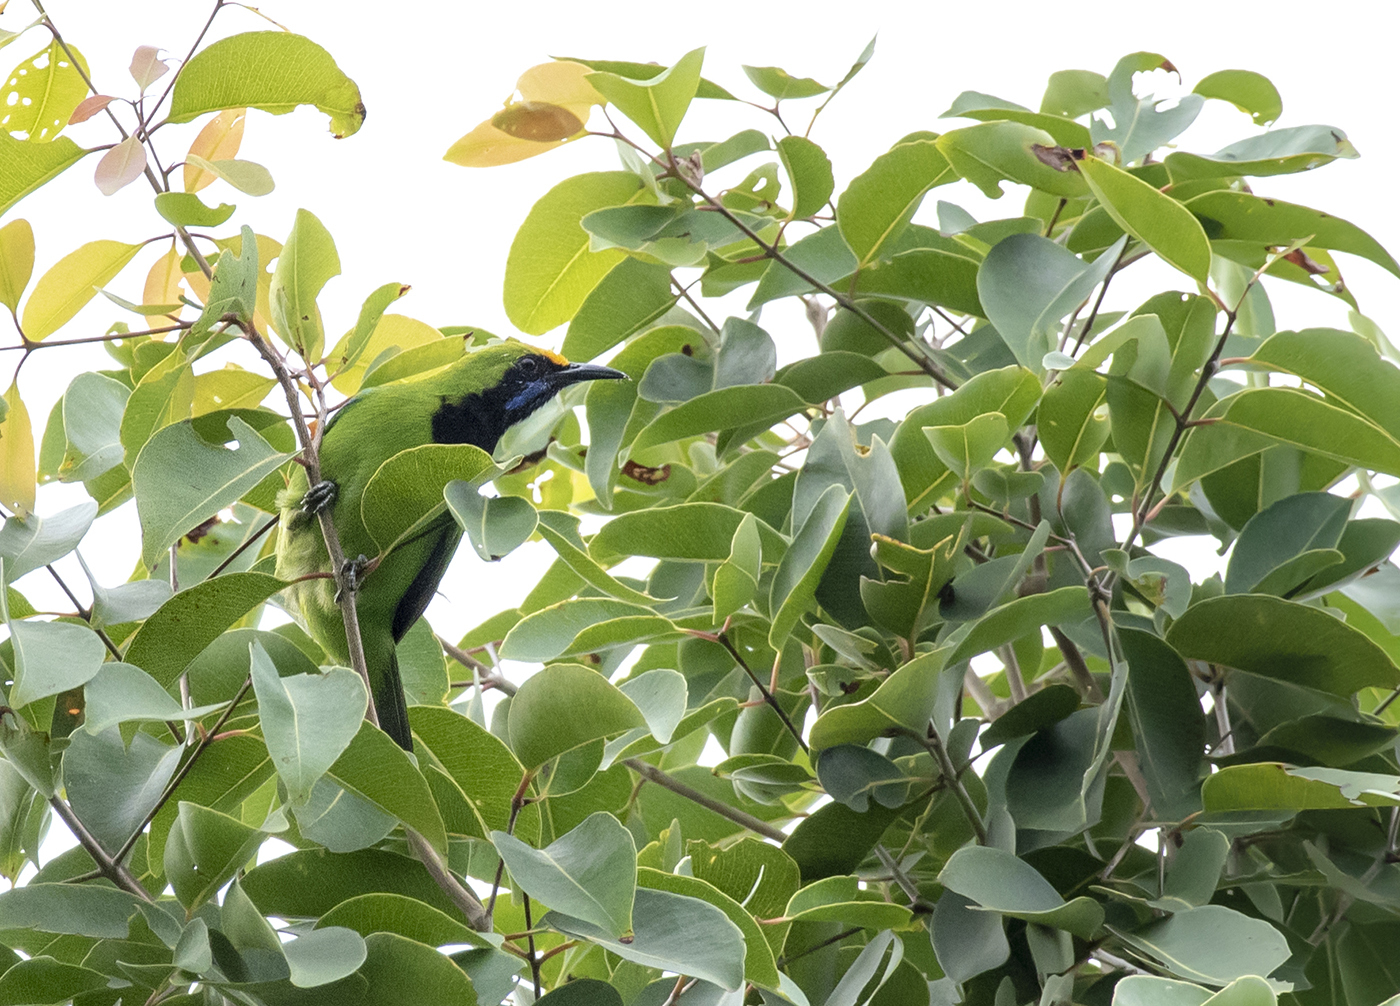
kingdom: Animalia
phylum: Chordata
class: Aves
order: Passeriformes
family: Chloropseidae
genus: Chloropsis
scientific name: Chloropsis aurifrons
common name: Golden-fronted leafbird
